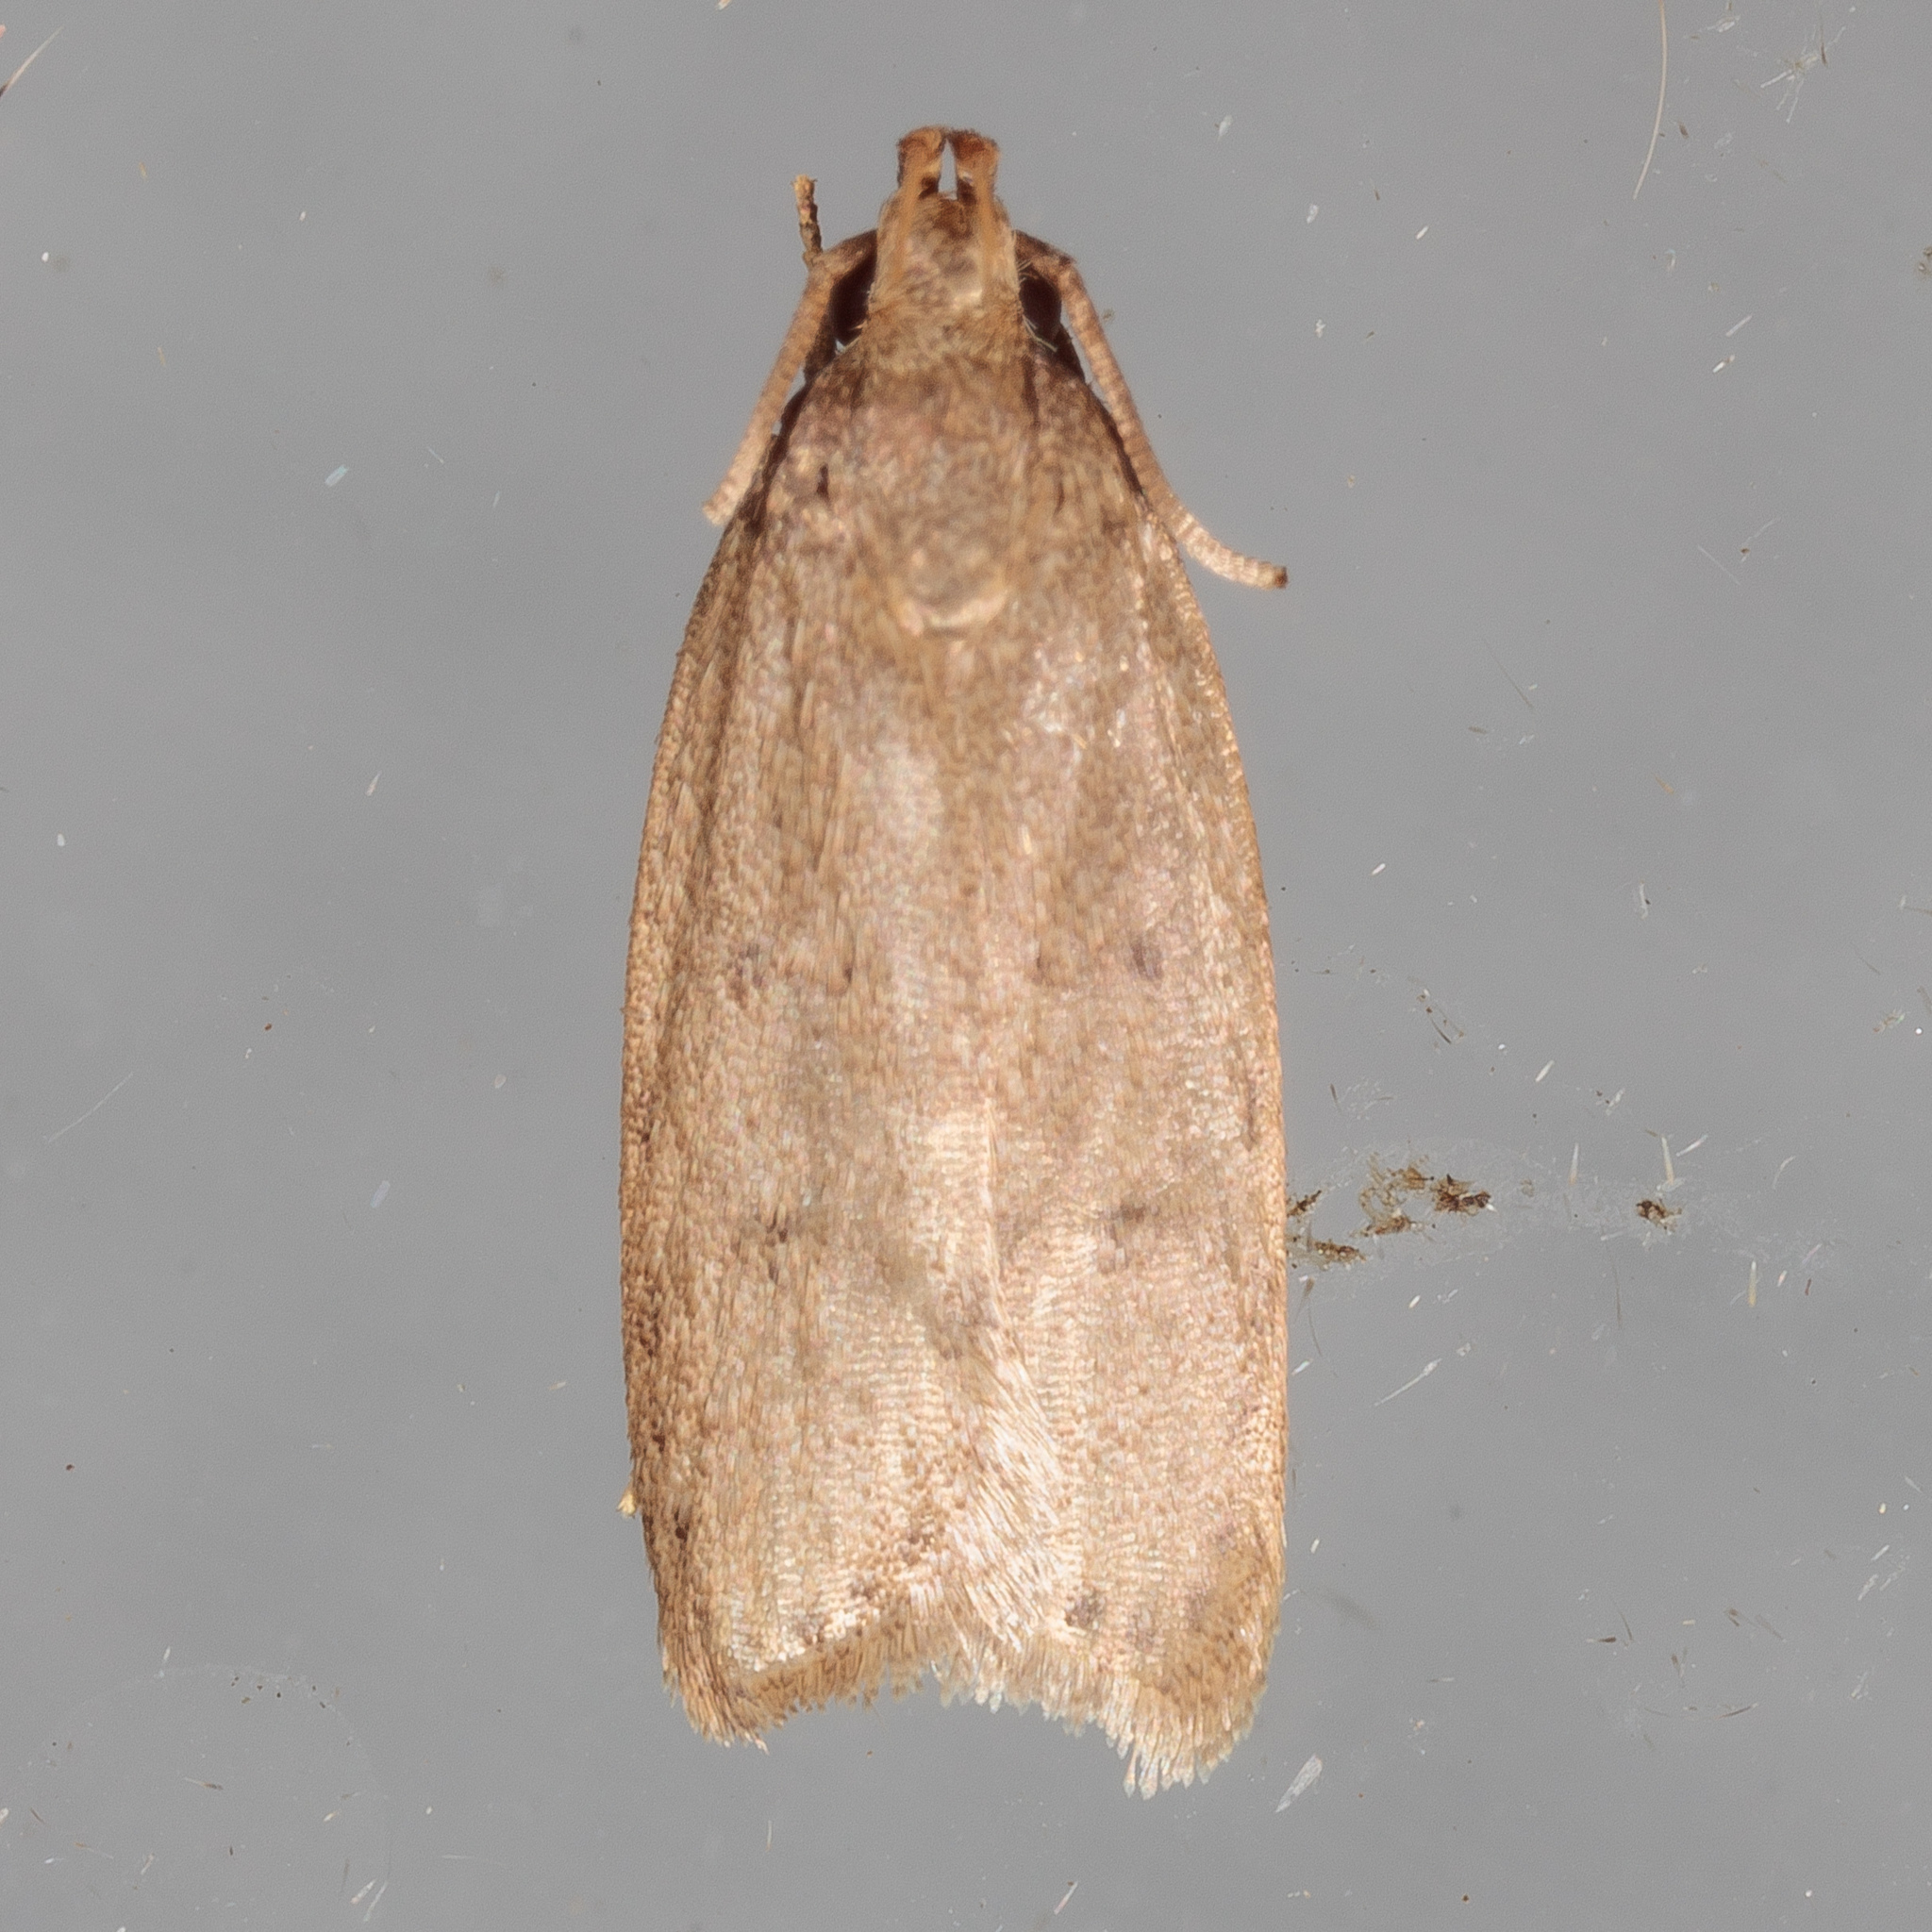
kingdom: Animalia
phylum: Arthropoda
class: Insecta
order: Lepidoptera
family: Autostichidae
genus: Autosticha
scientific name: Autosticha kyotensis
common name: Kyoto moth
